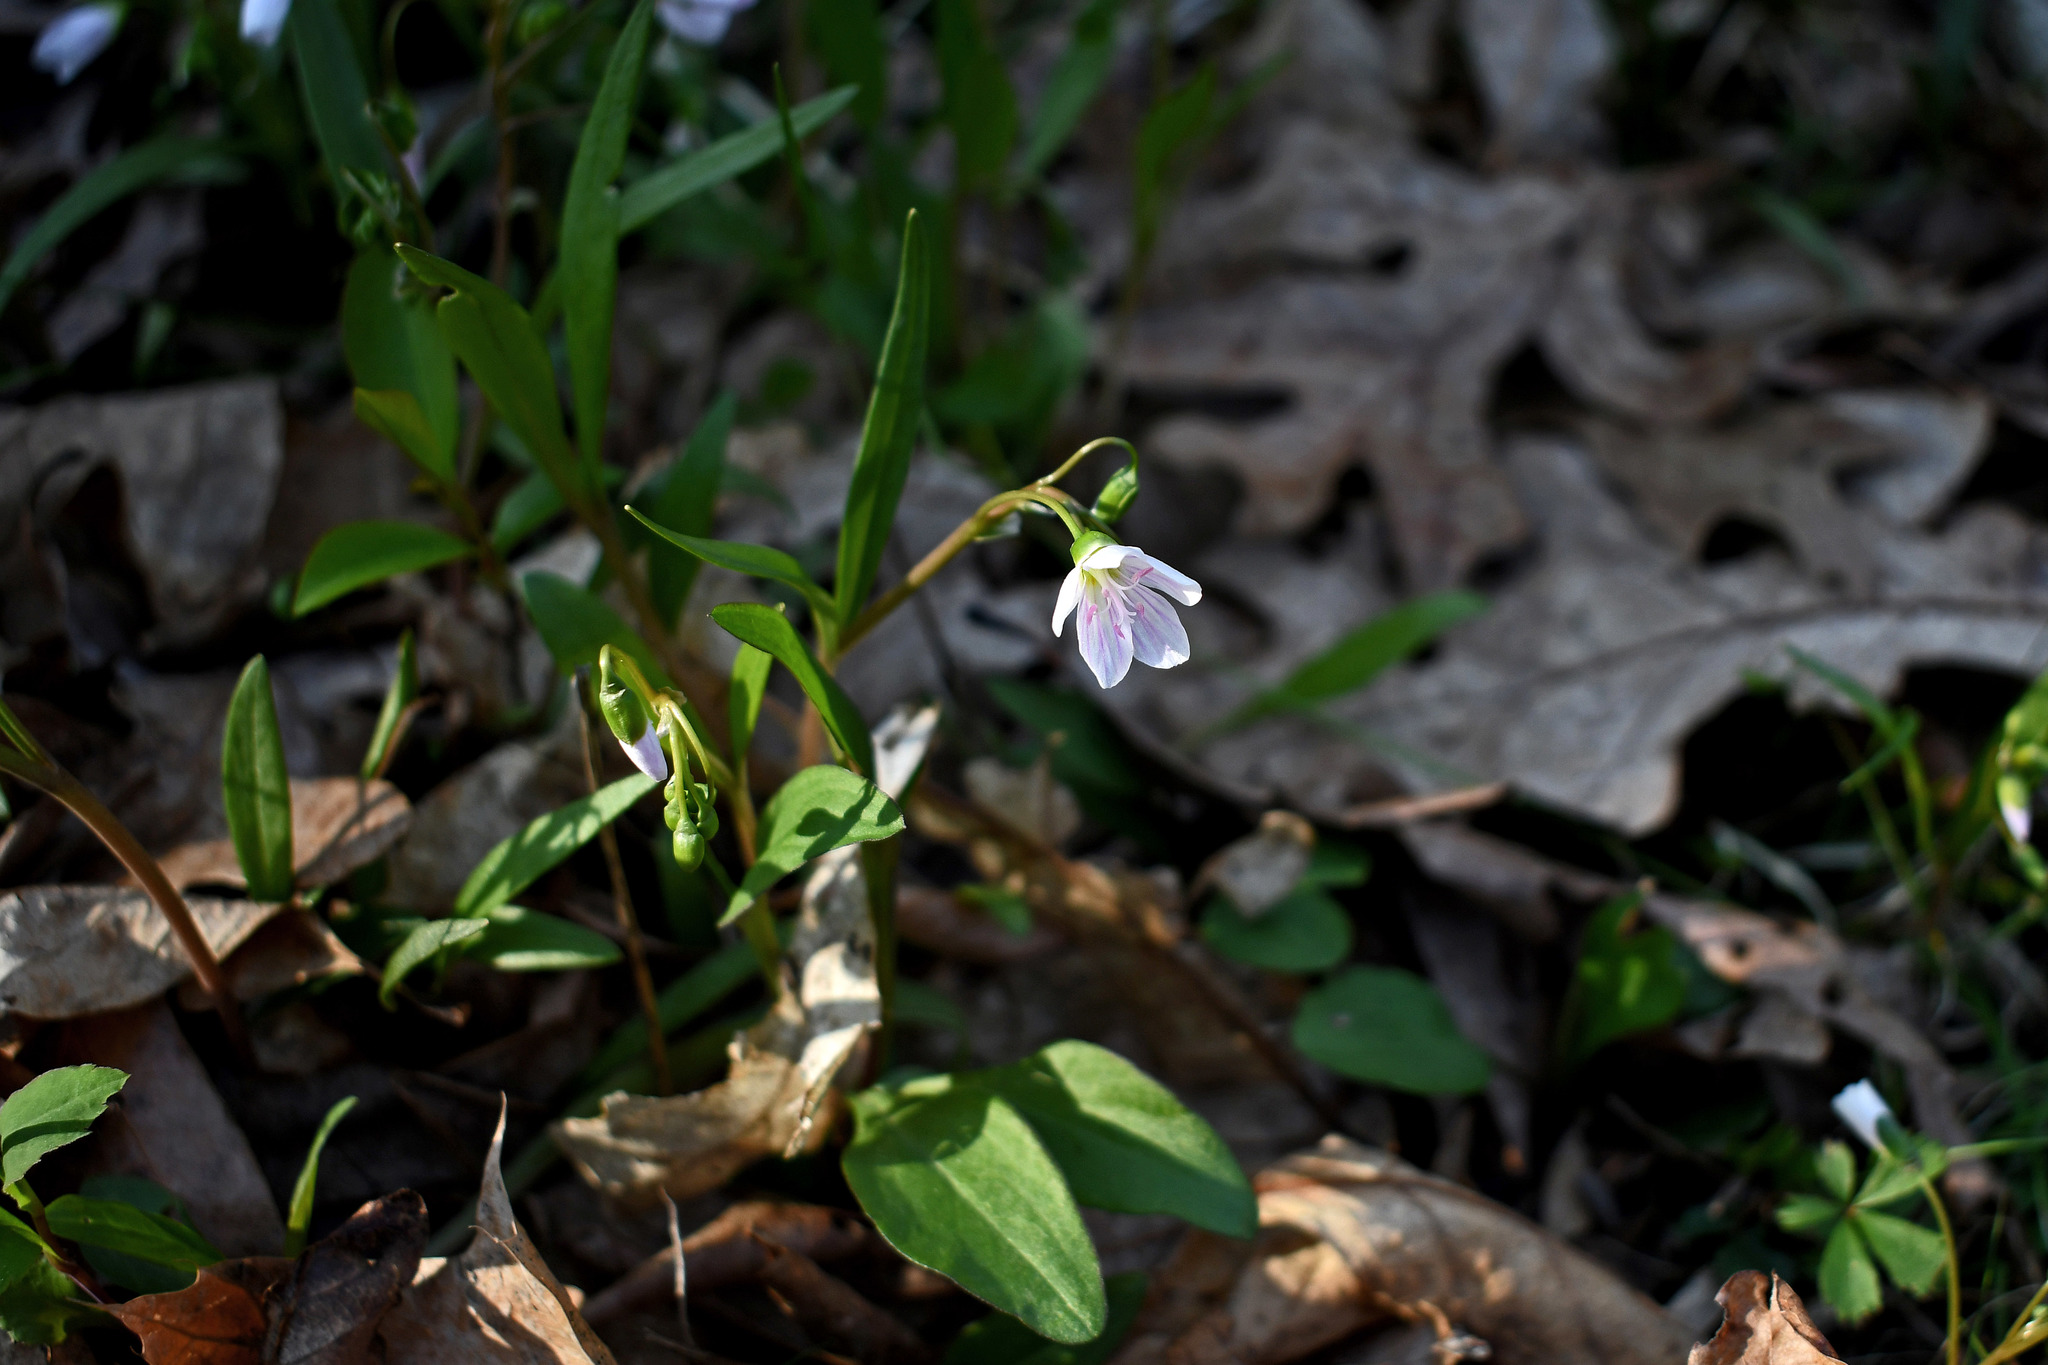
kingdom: Plantae
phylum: Tracheophyta
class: Magnoliopsida
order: Caryophyllales
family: Montiaceae
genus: Claytonia
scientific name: Claytonia virginica
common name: Virginia springbeauty
